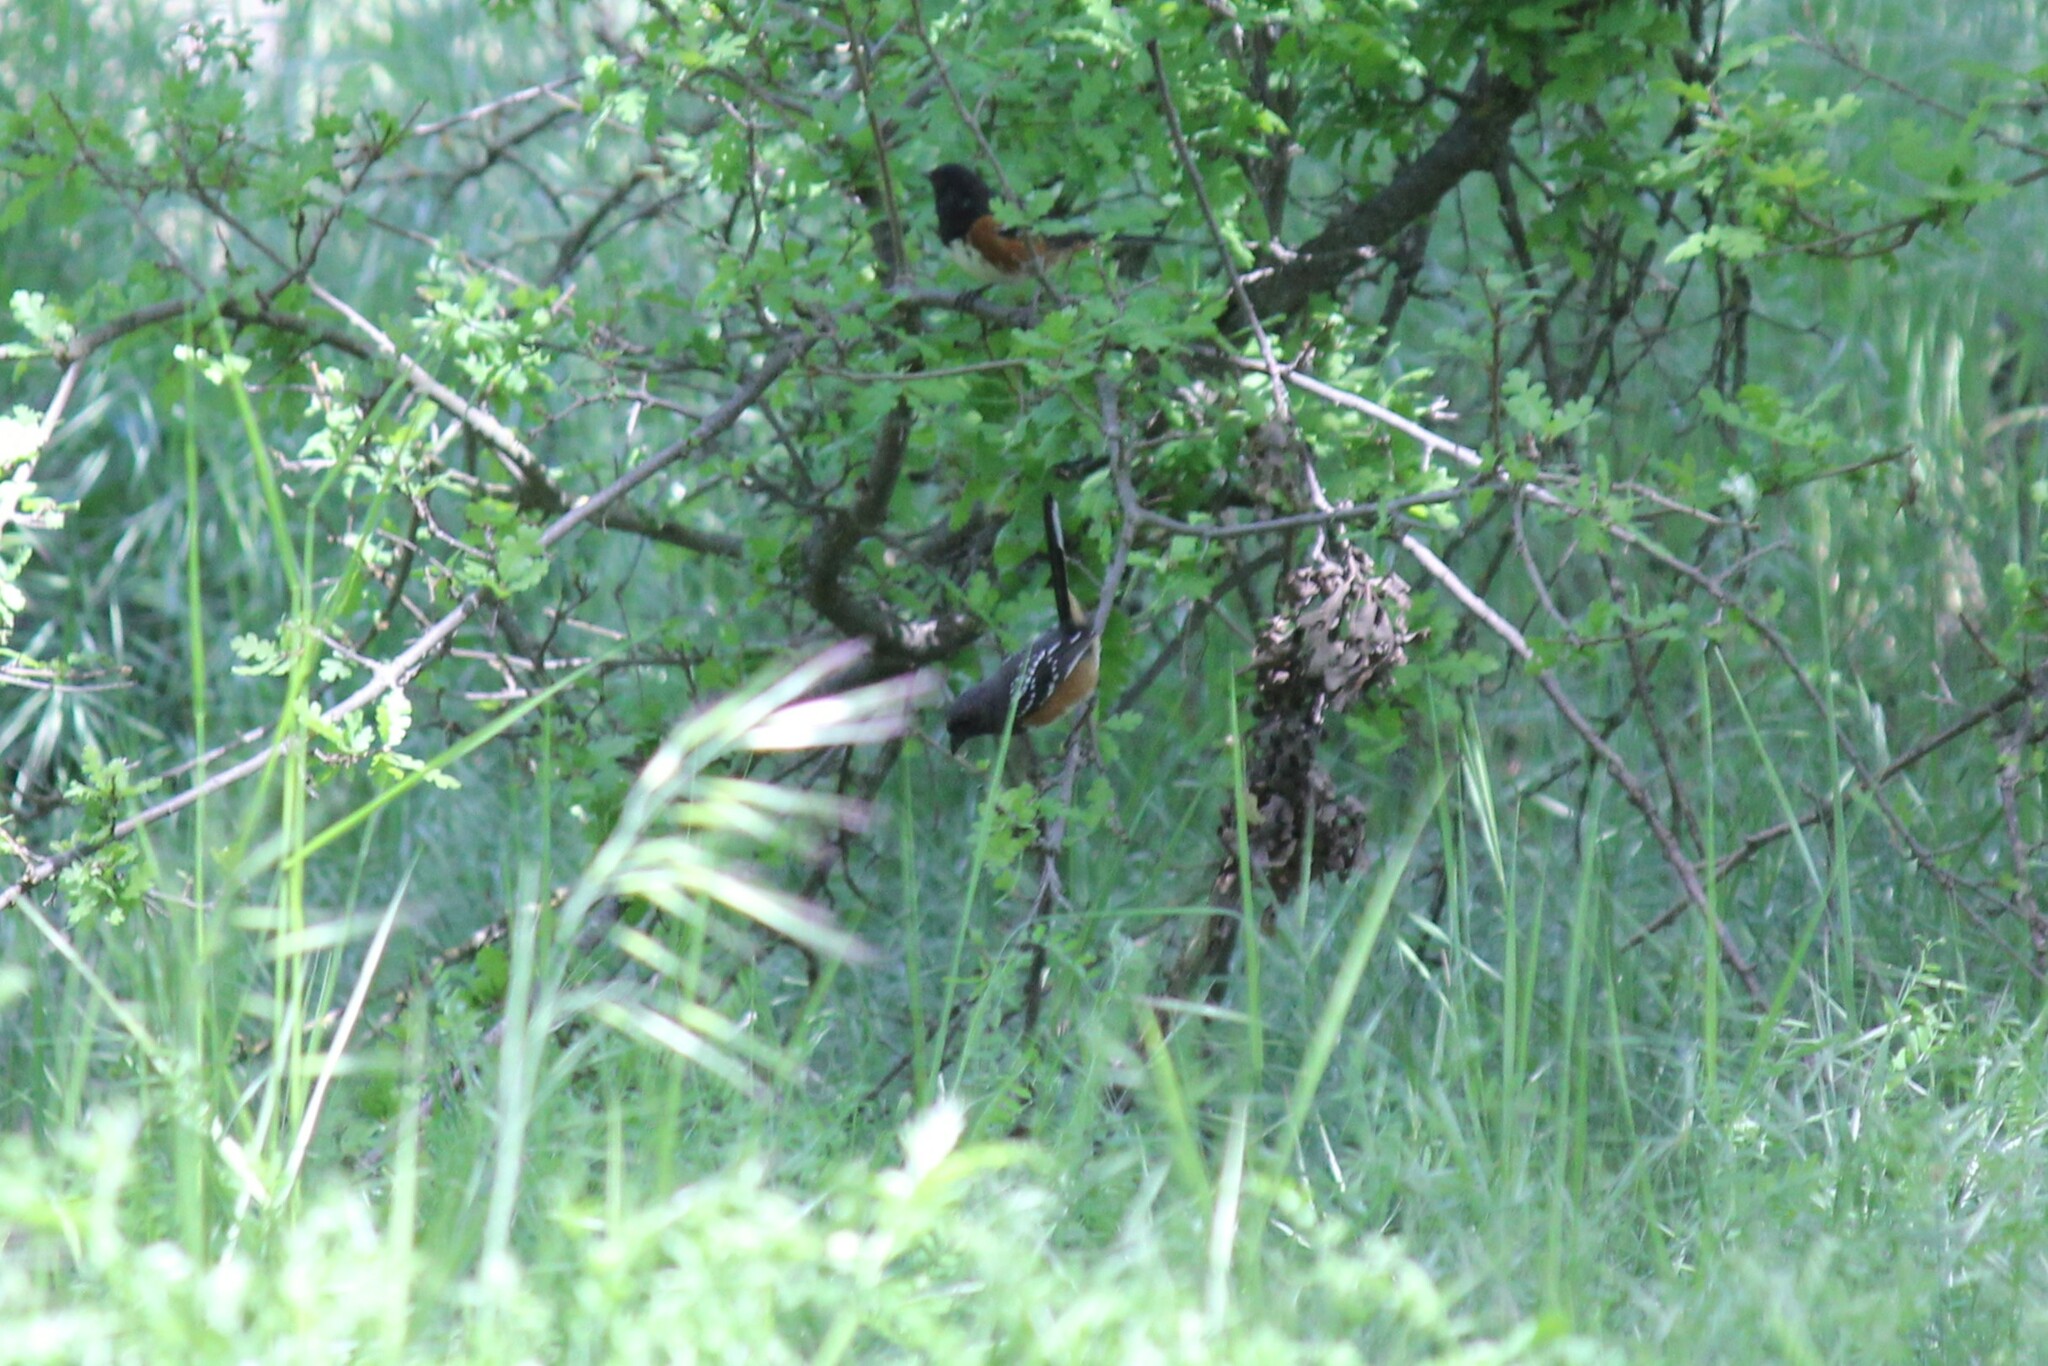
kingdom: Animalia
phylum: Chordata
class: Aves
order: Passeriformes
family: Passerellidae
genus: Pipilo
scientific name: Pipilo maculatus
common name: Spotted towhee
